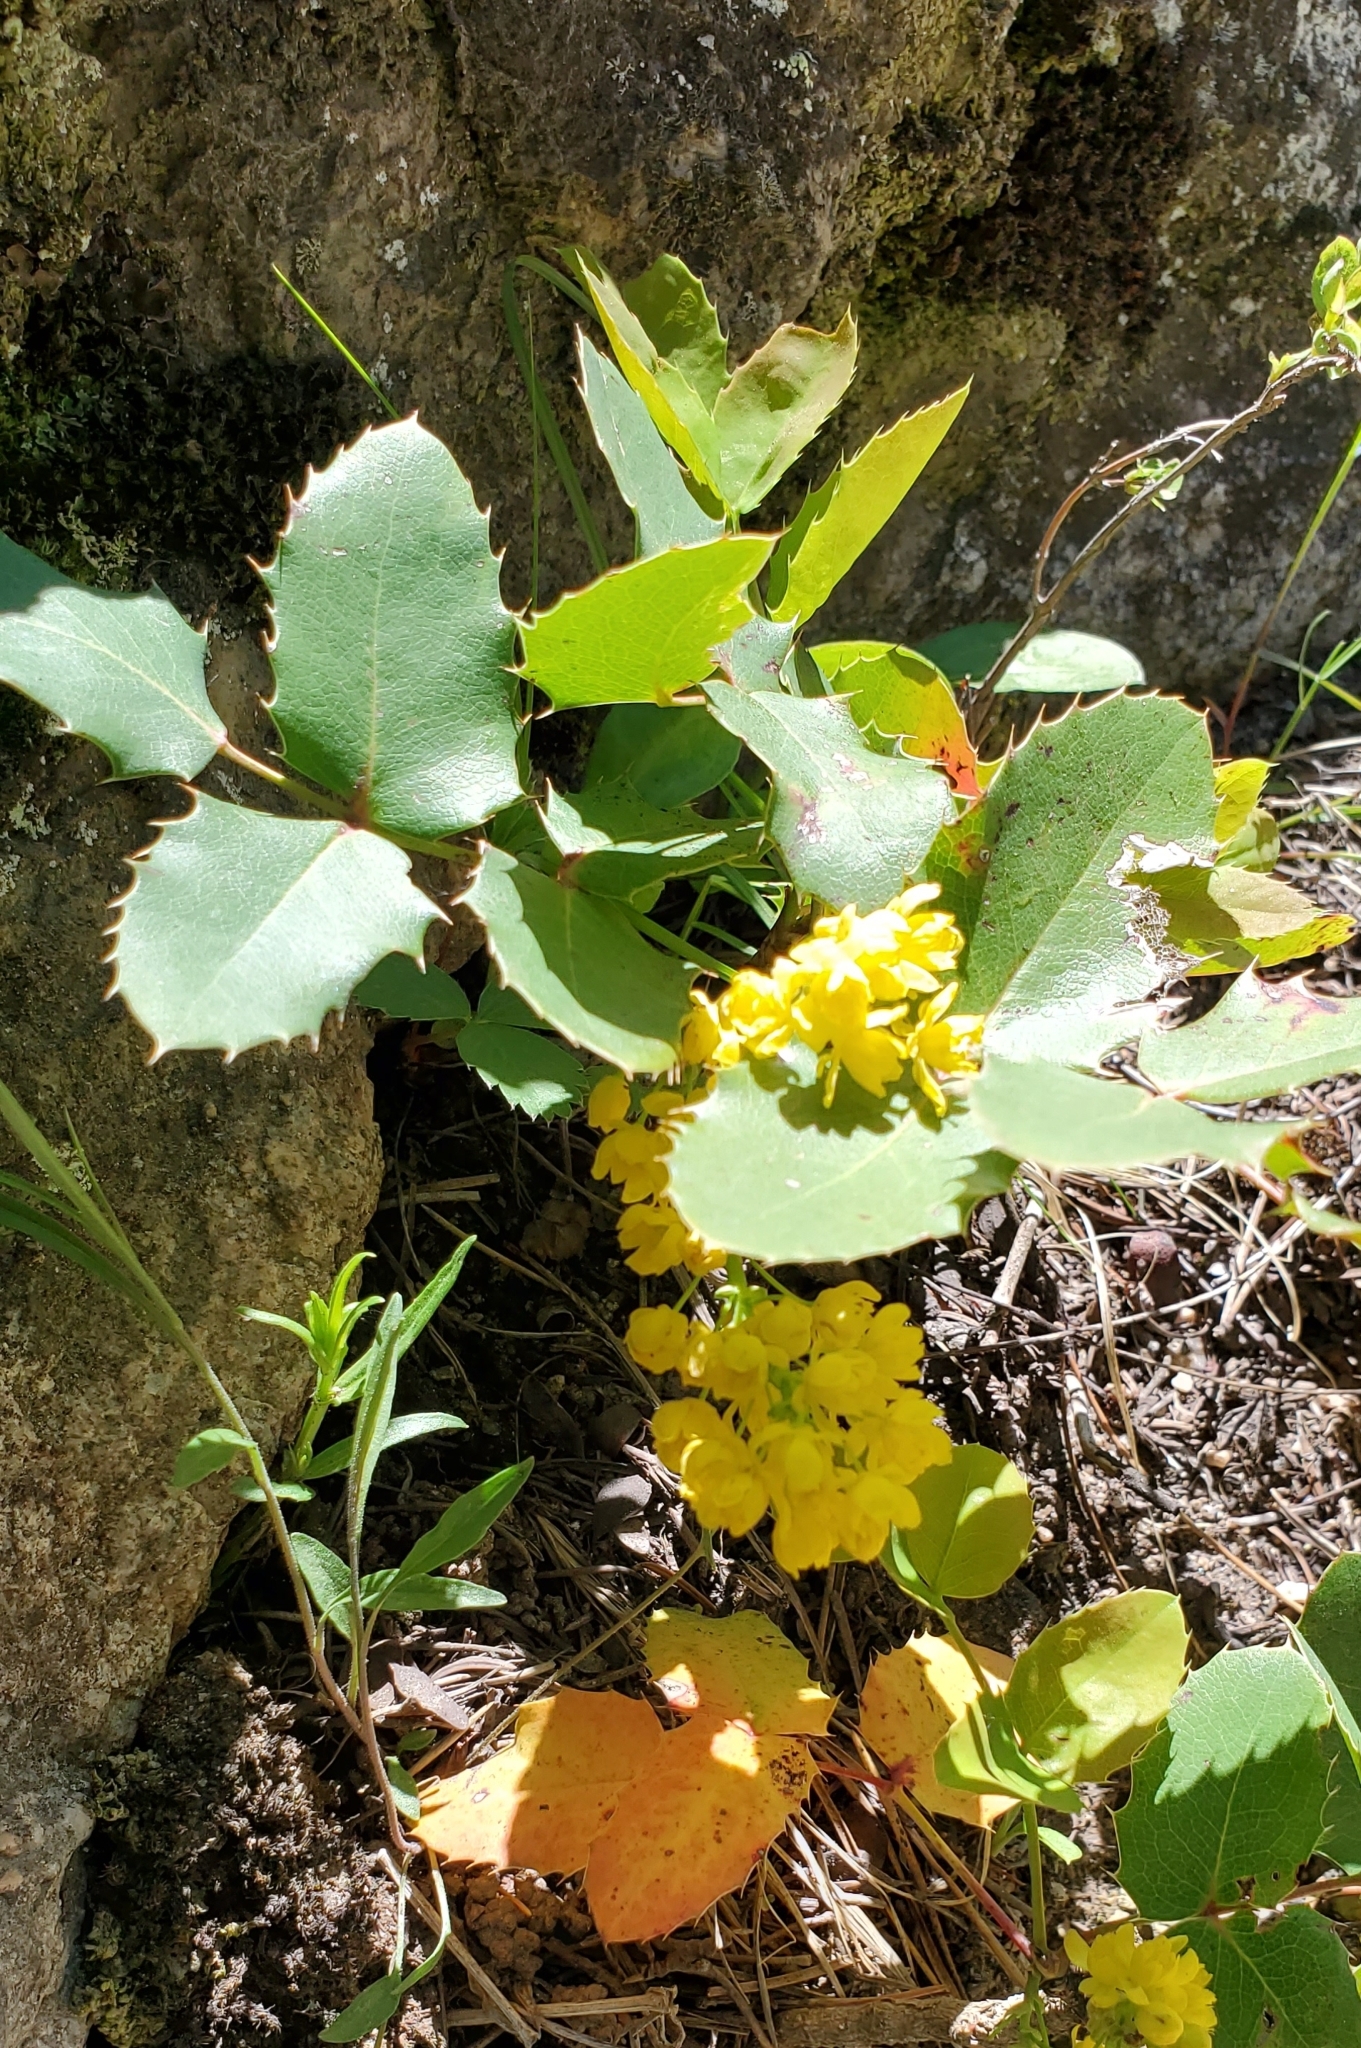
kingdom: Plantae
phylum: Tracheophyta
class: Magnoliopsida
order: Ranunculales
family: Berberidaceae
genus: Mahonia
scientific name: Mahonia repens
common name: Creeping oregon-grape
